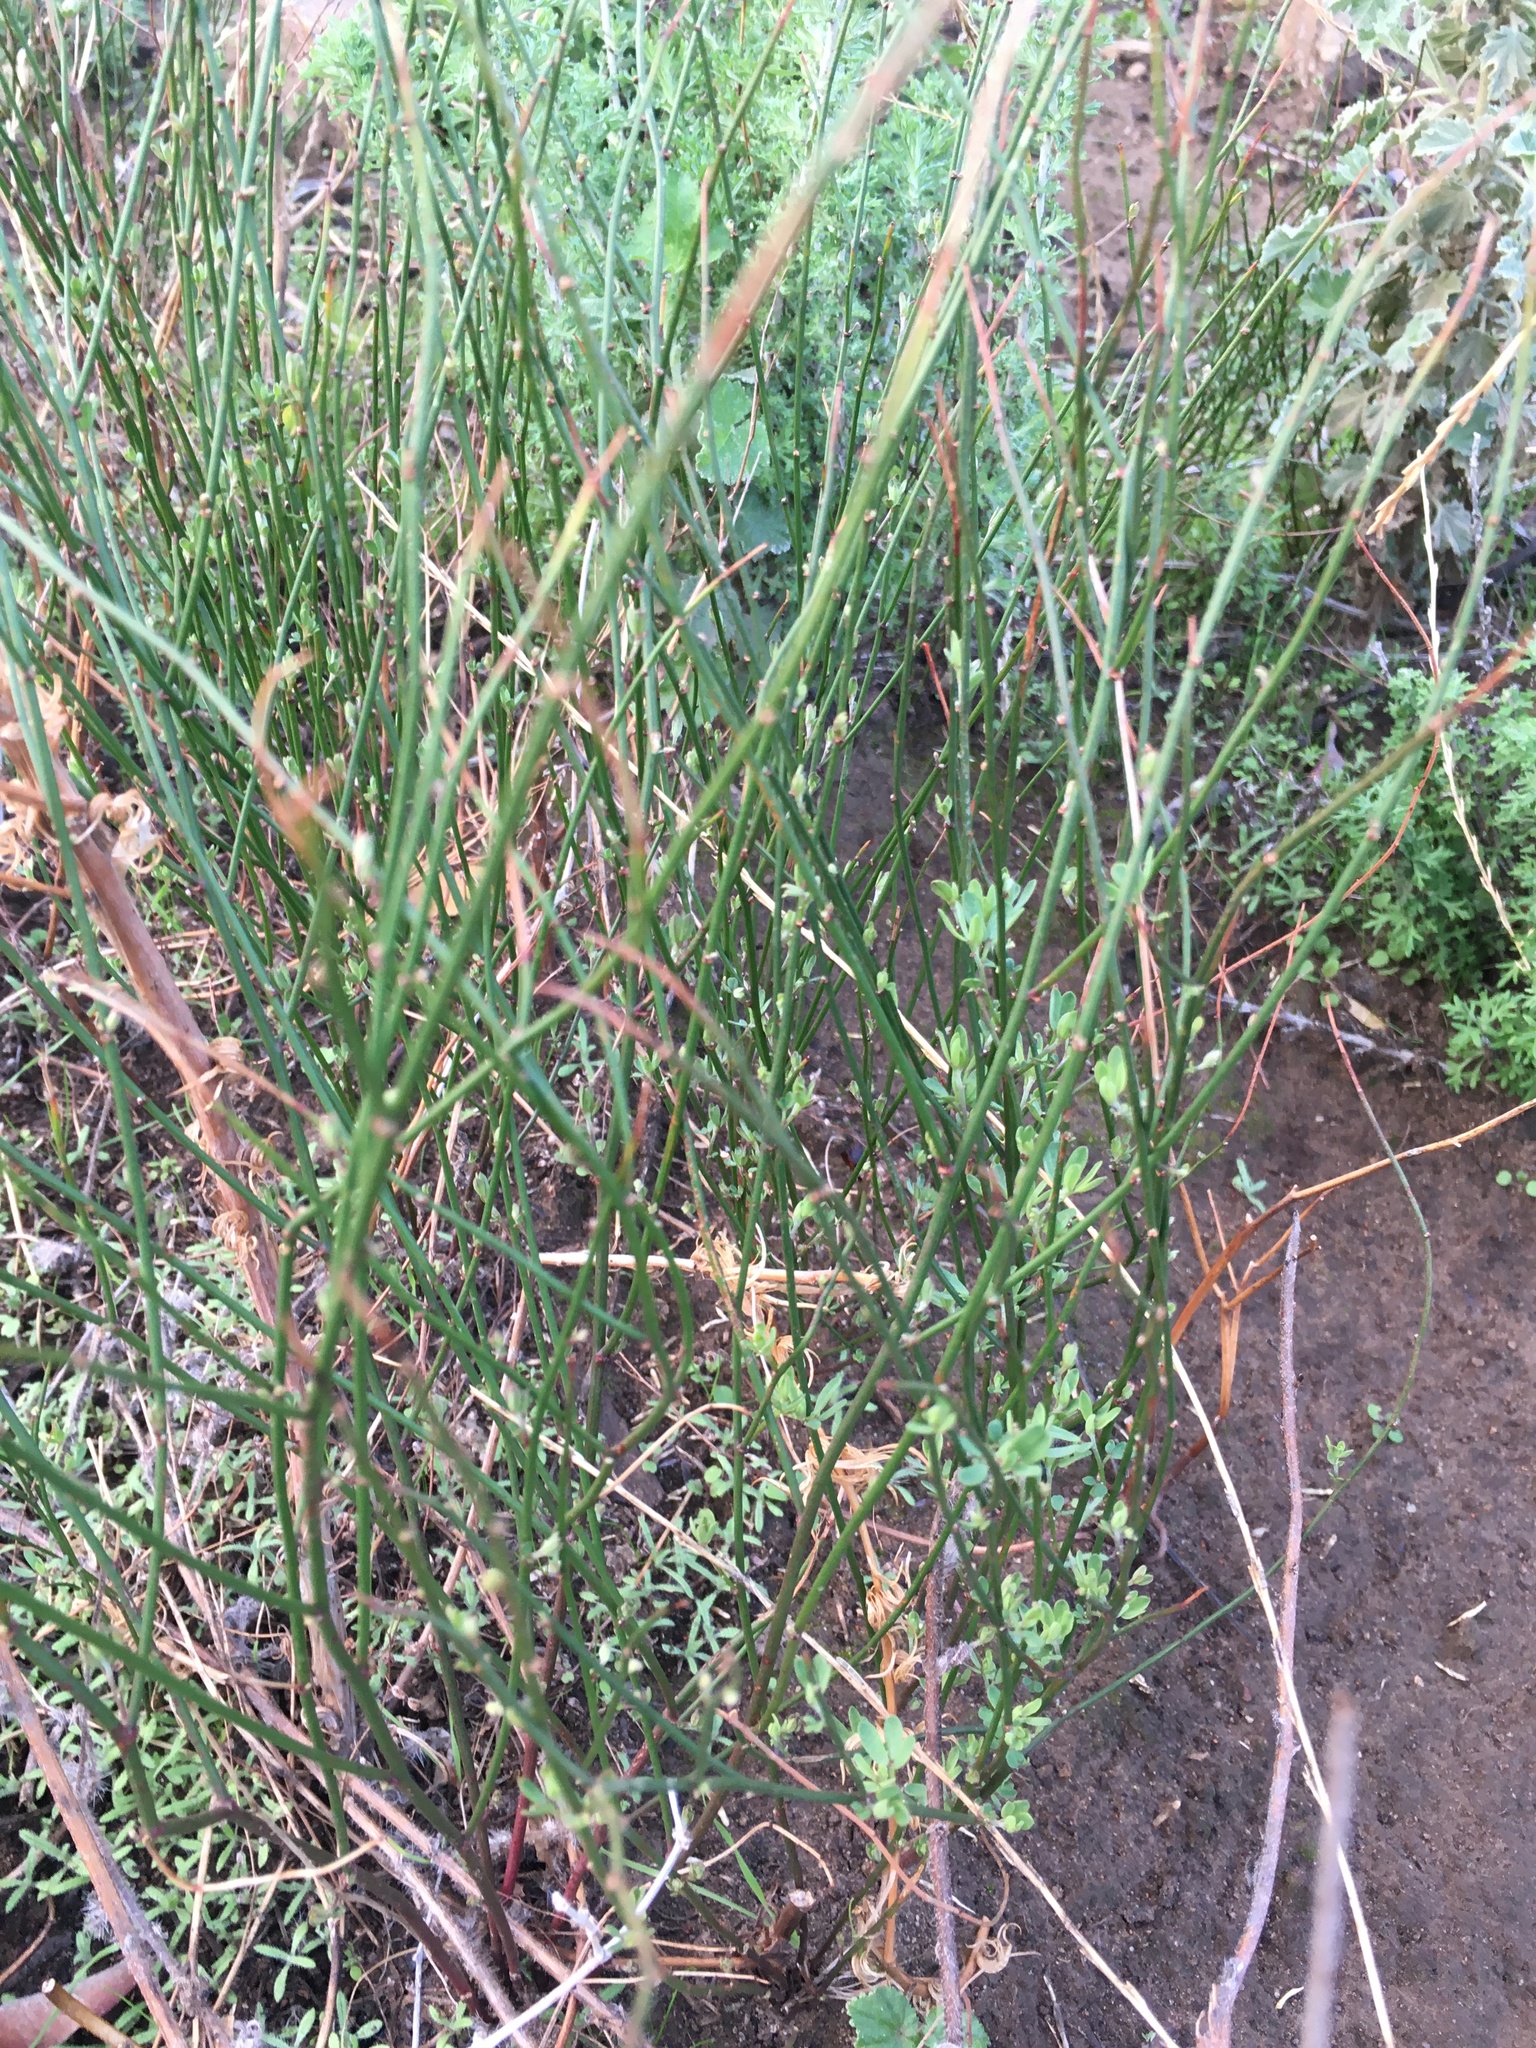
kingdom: Plantae
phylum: Tracheophyta
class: Magnoliopsida
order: Fabales
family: Fabaceae
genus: Acmispon
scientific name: Acmispon glaber
